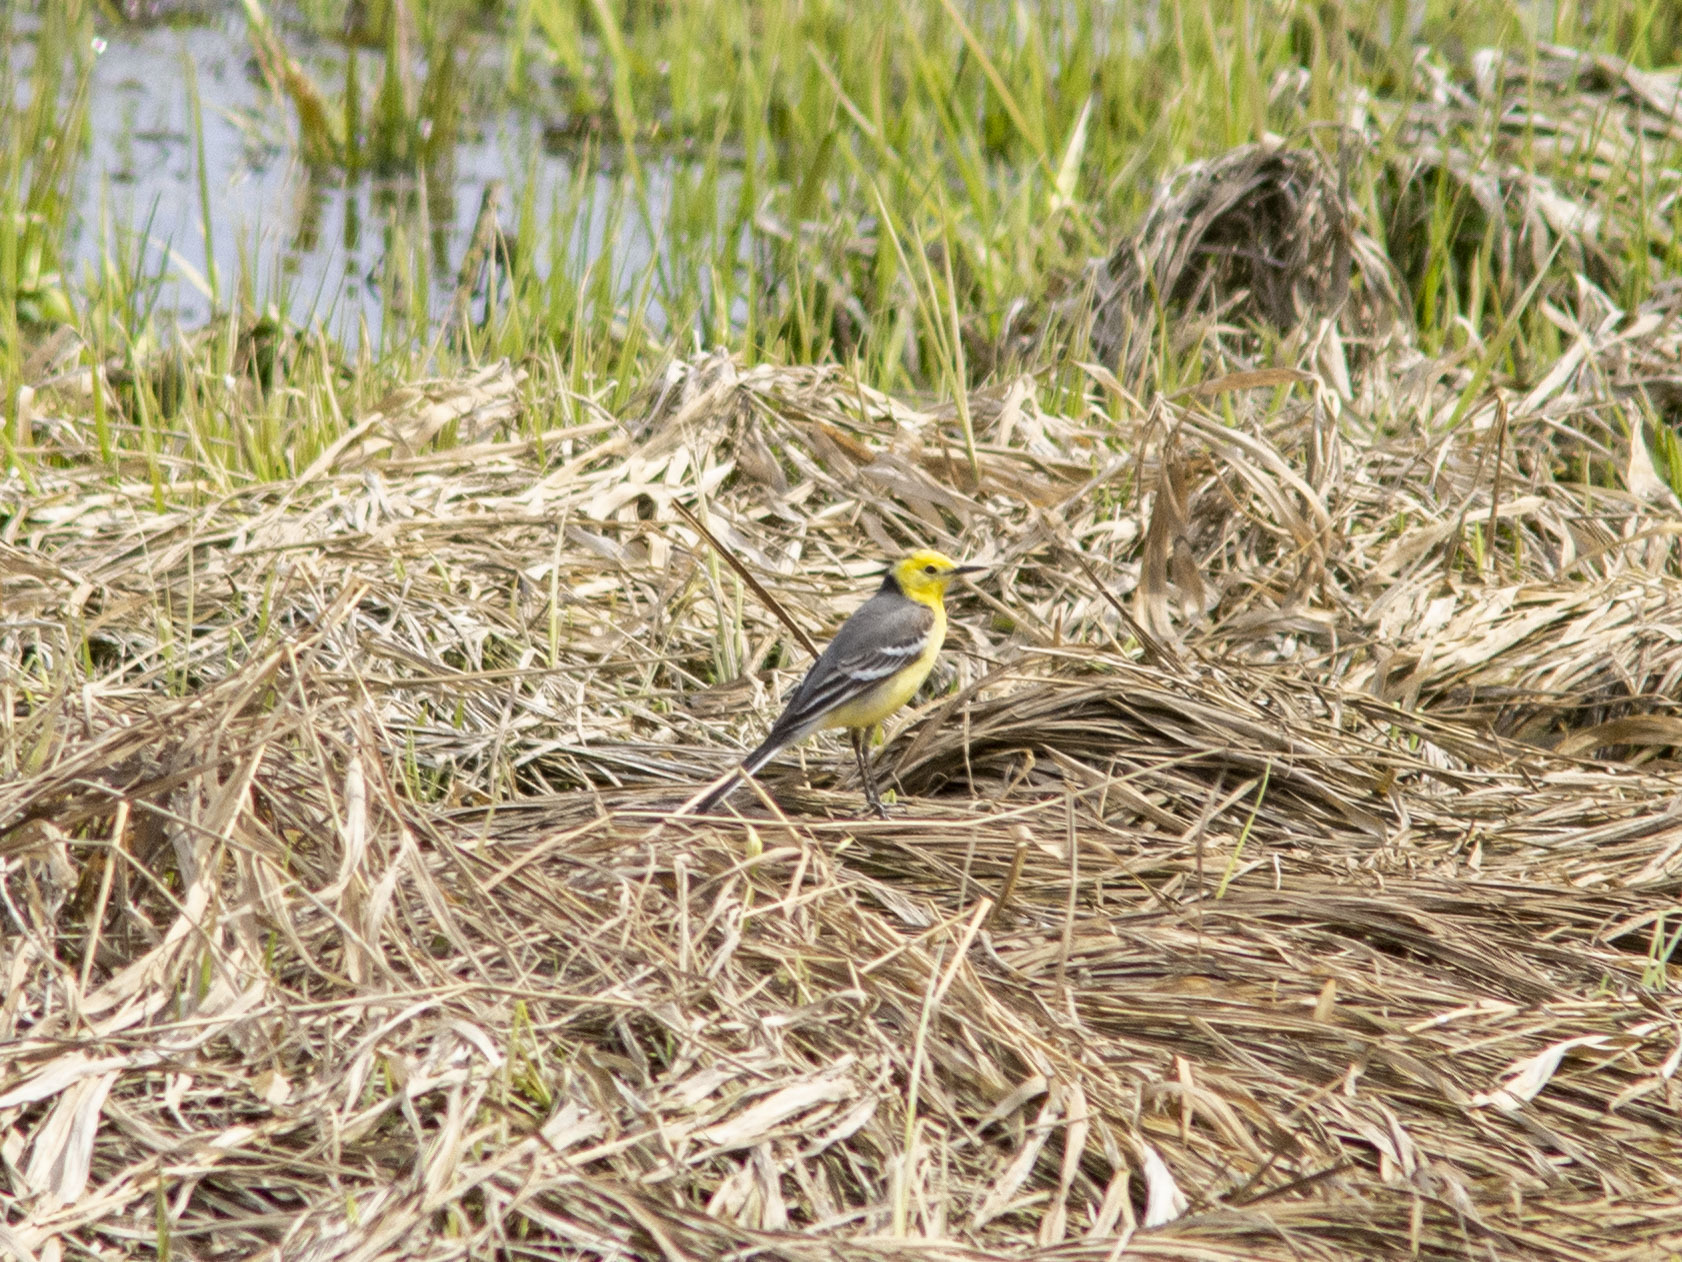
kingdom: Animalia
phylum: Chordata
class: Aves
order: Passeriformes
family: Motacillidae
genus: Motacilla
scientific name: Motacilla citreola
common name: Citrine wagtail
